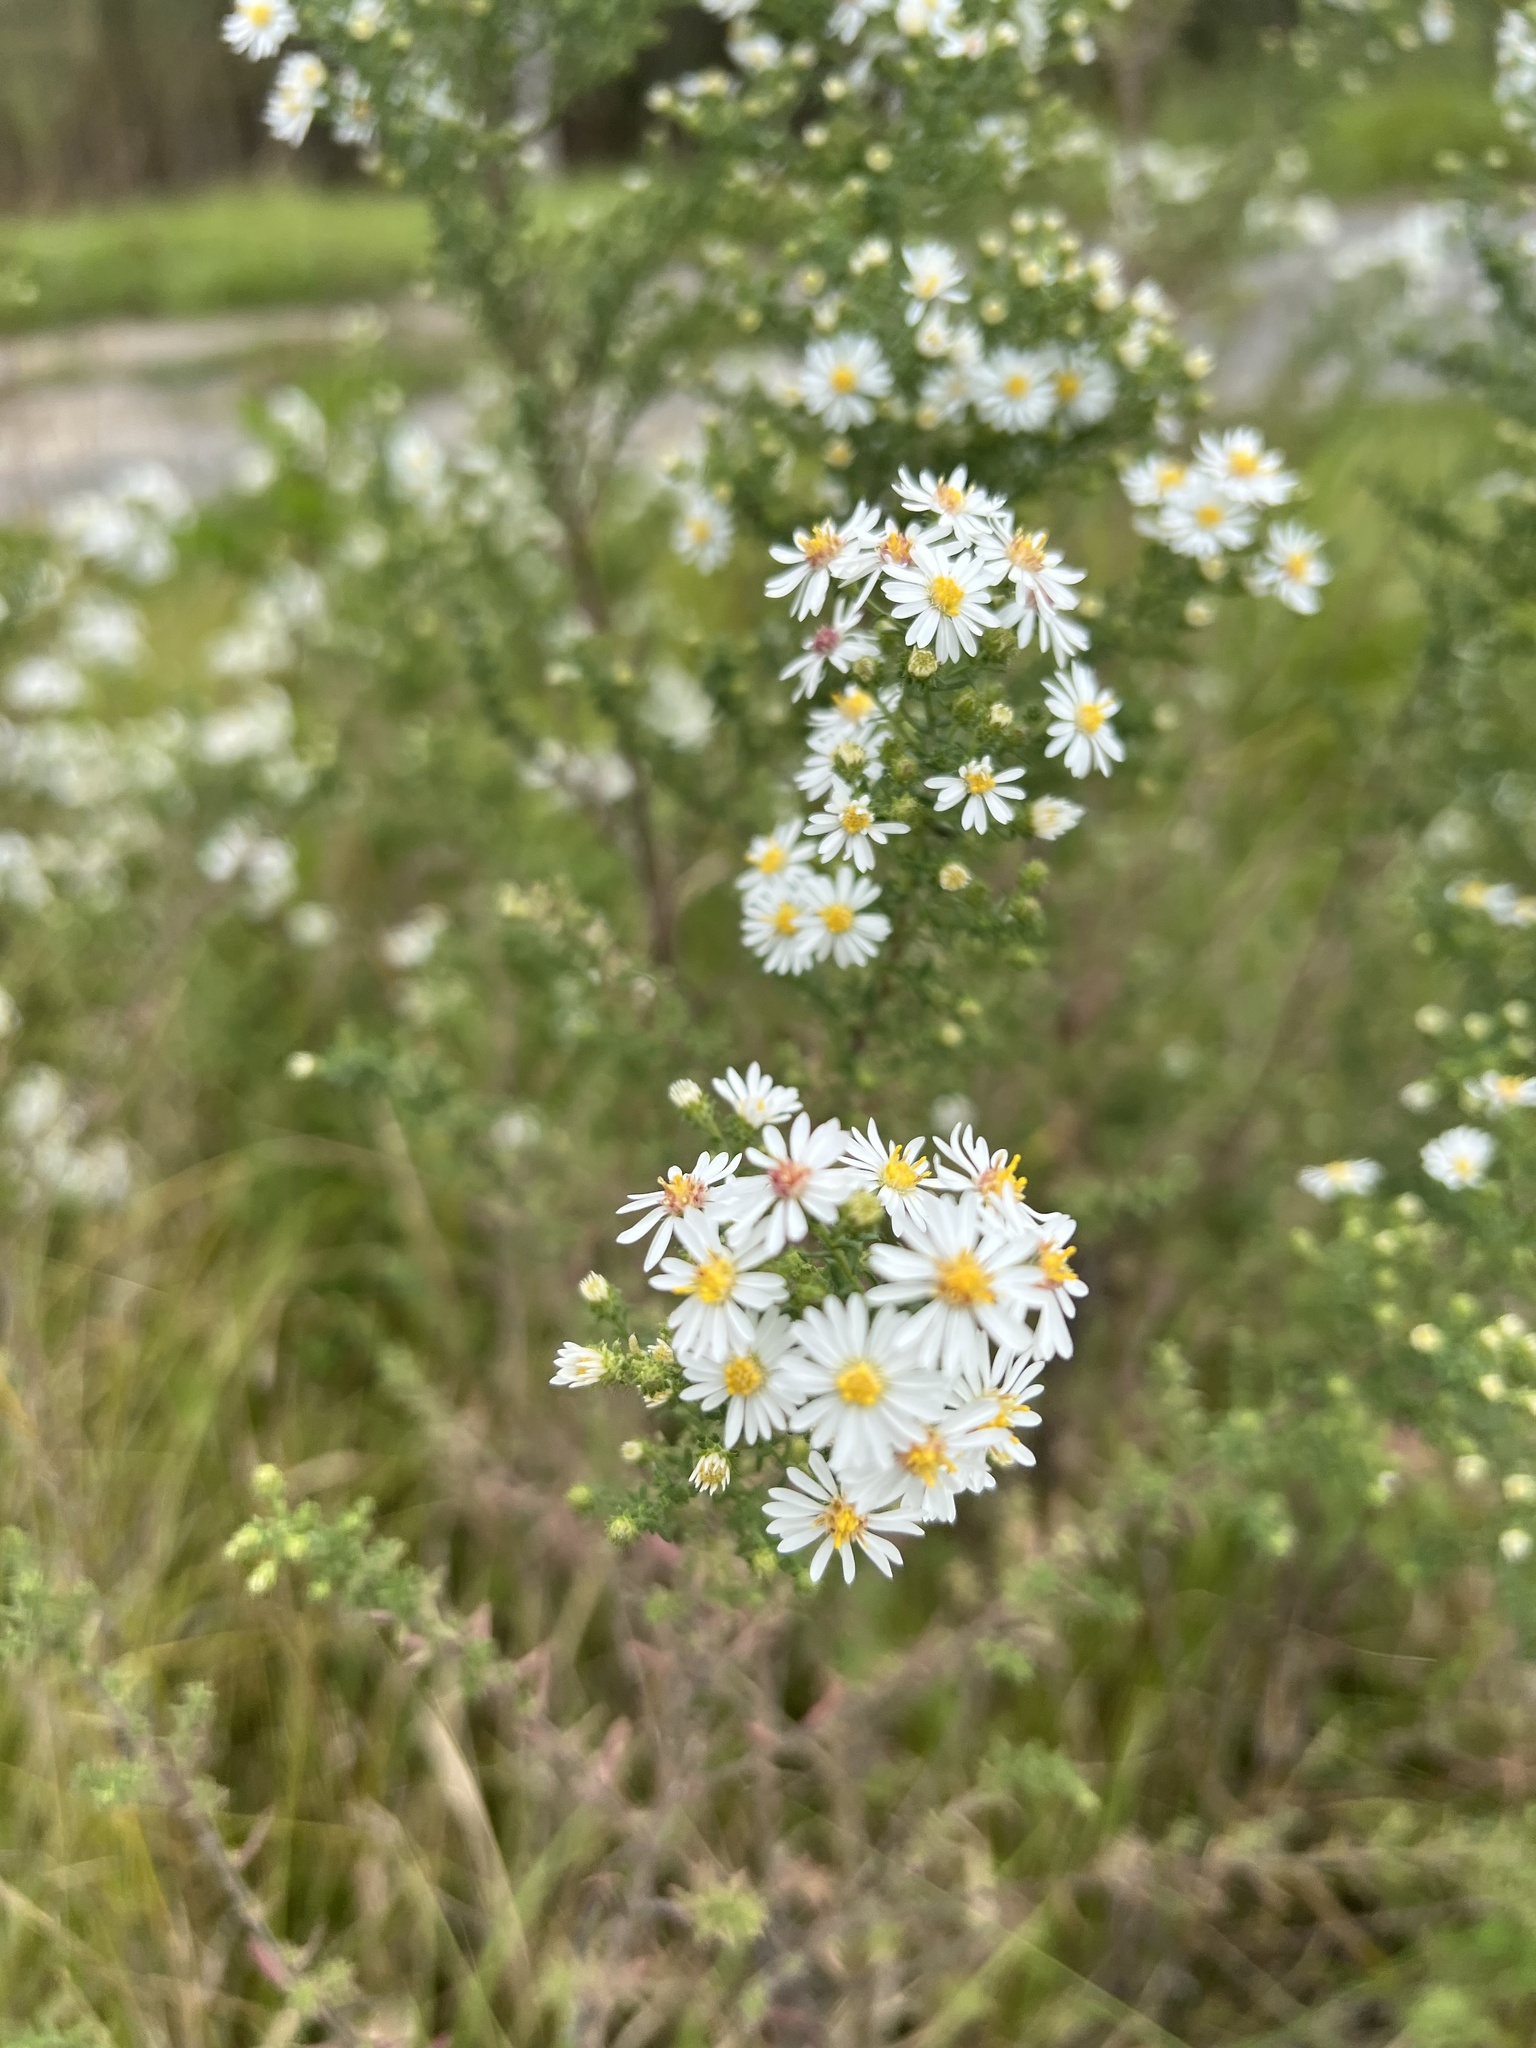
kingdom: Plantae
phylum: Tracheophyta
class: Magnoliopsida
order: Asterales
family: Asteraceae
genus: Symphyotrichum
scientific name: Symphyotrichum ericoides
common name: Heath aster
